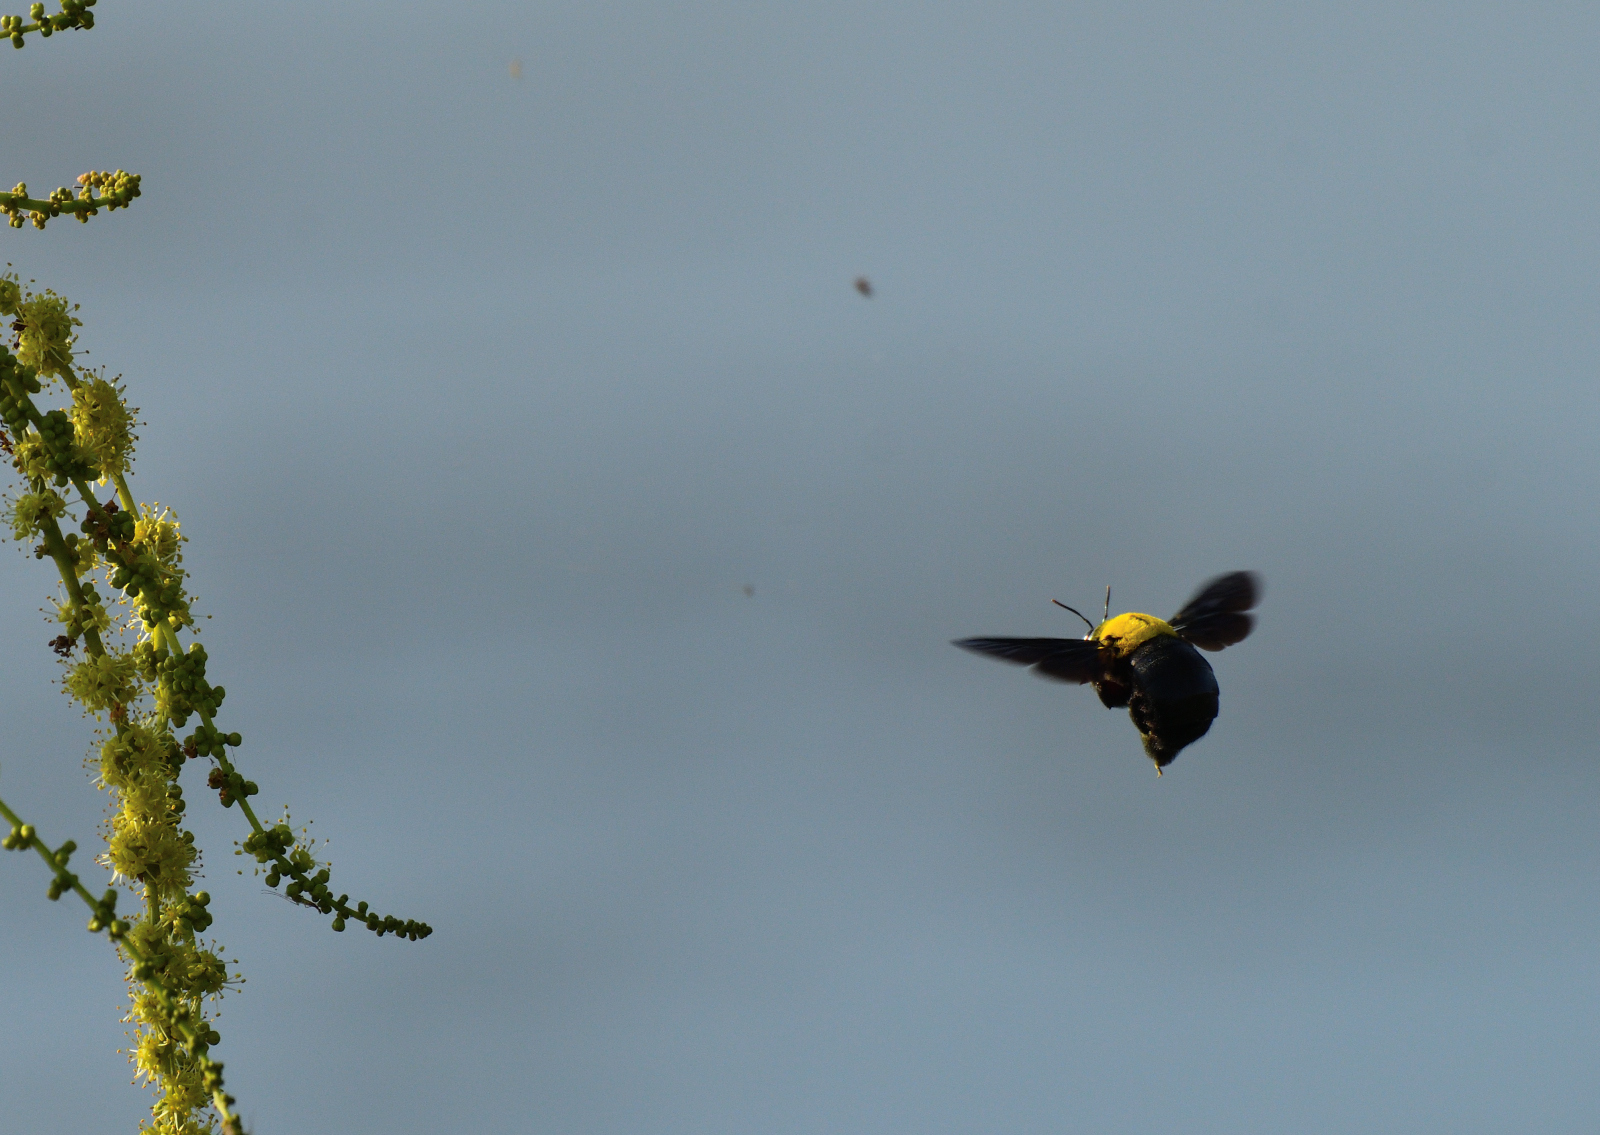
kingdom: Animalia
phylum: Arthropoda
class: Insecta
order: Hymenoptera
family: Apidae
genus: Xylocopa
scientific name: Xylocopa ruficornis
